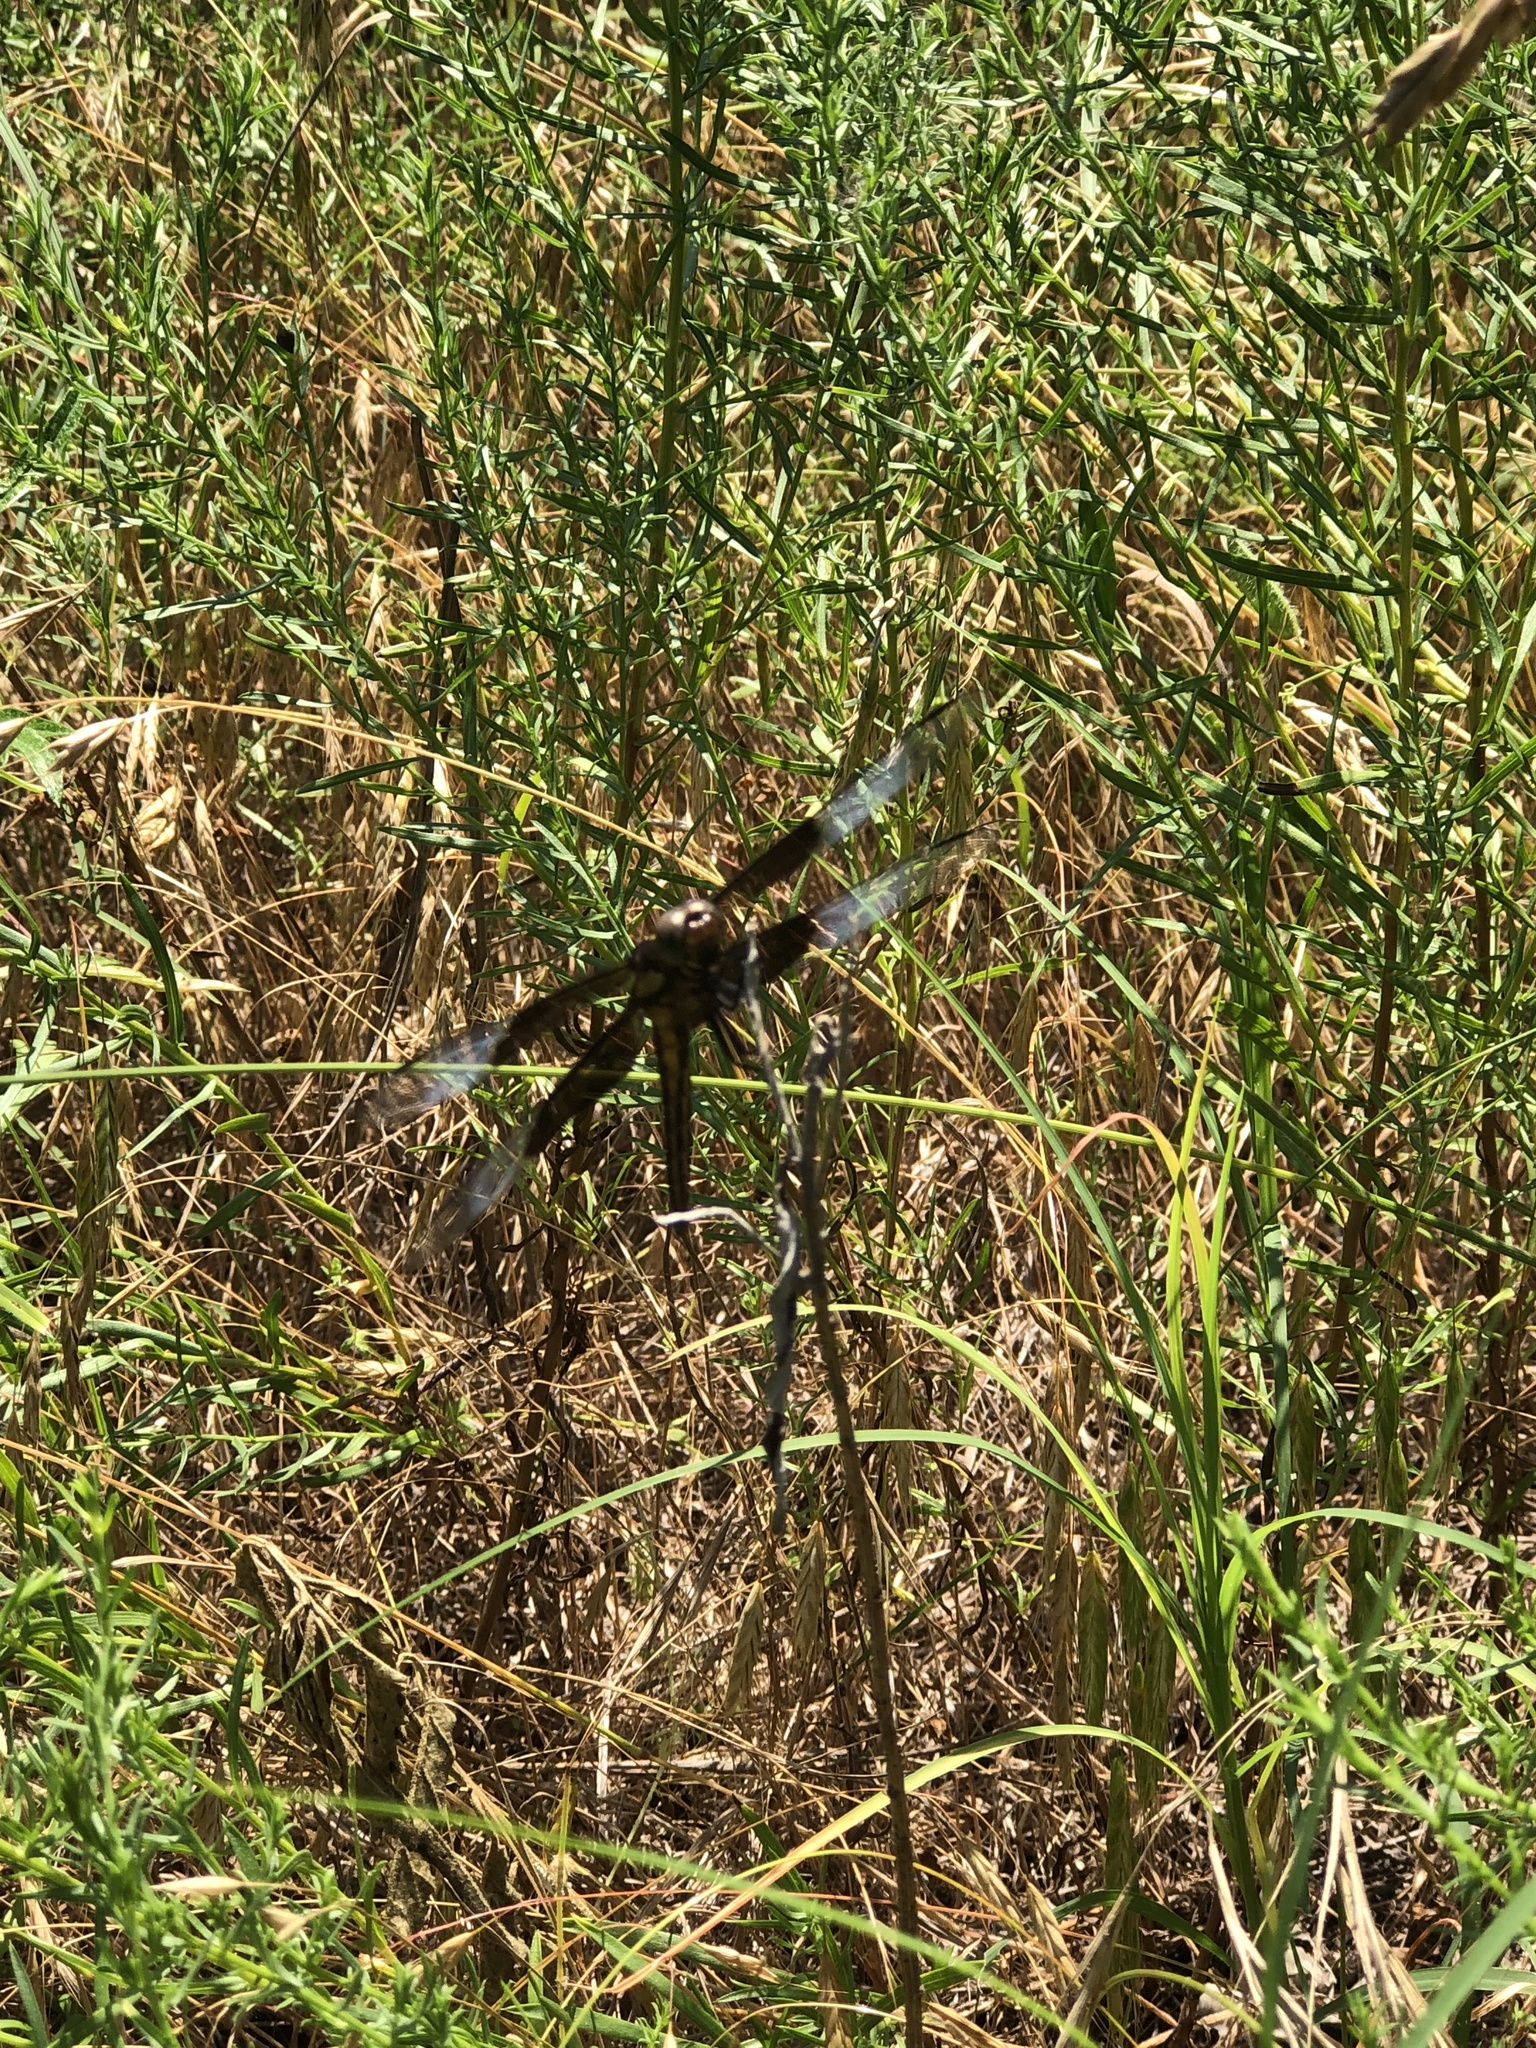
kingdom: Animalia
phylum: Arthropoda
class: Insecta
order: Odonata
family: Libellulidae
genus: Libellula
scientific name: Libellula luctuosa
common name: Widow skimmer
